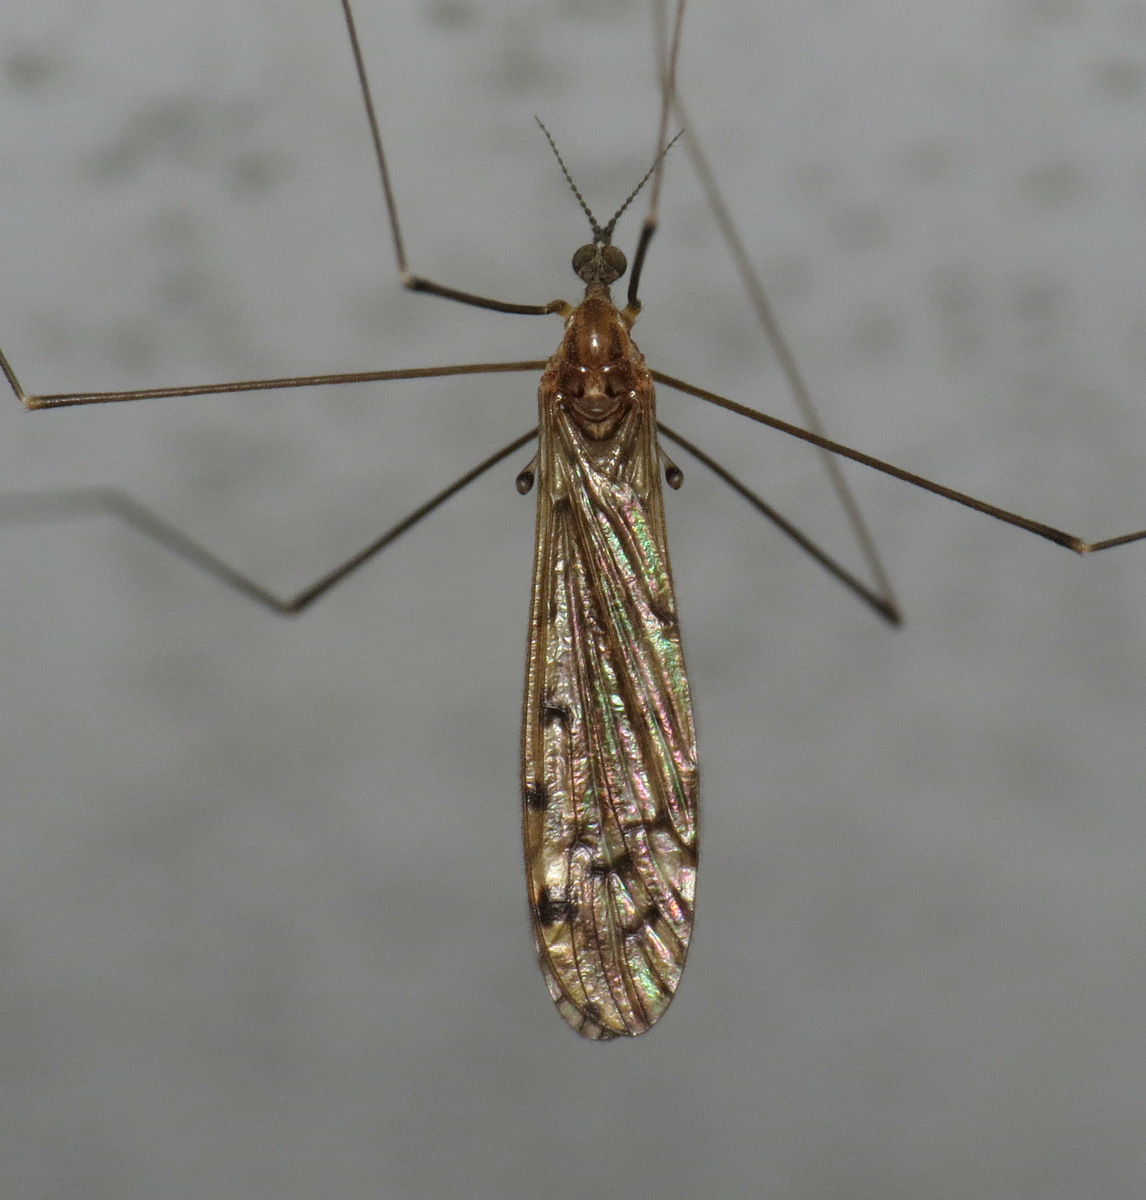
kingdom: Animalia
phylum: Arthropoda
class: Insecta
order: Diptera
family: Limoniidae
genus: Neolimonia
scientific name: Neolimonia rara
